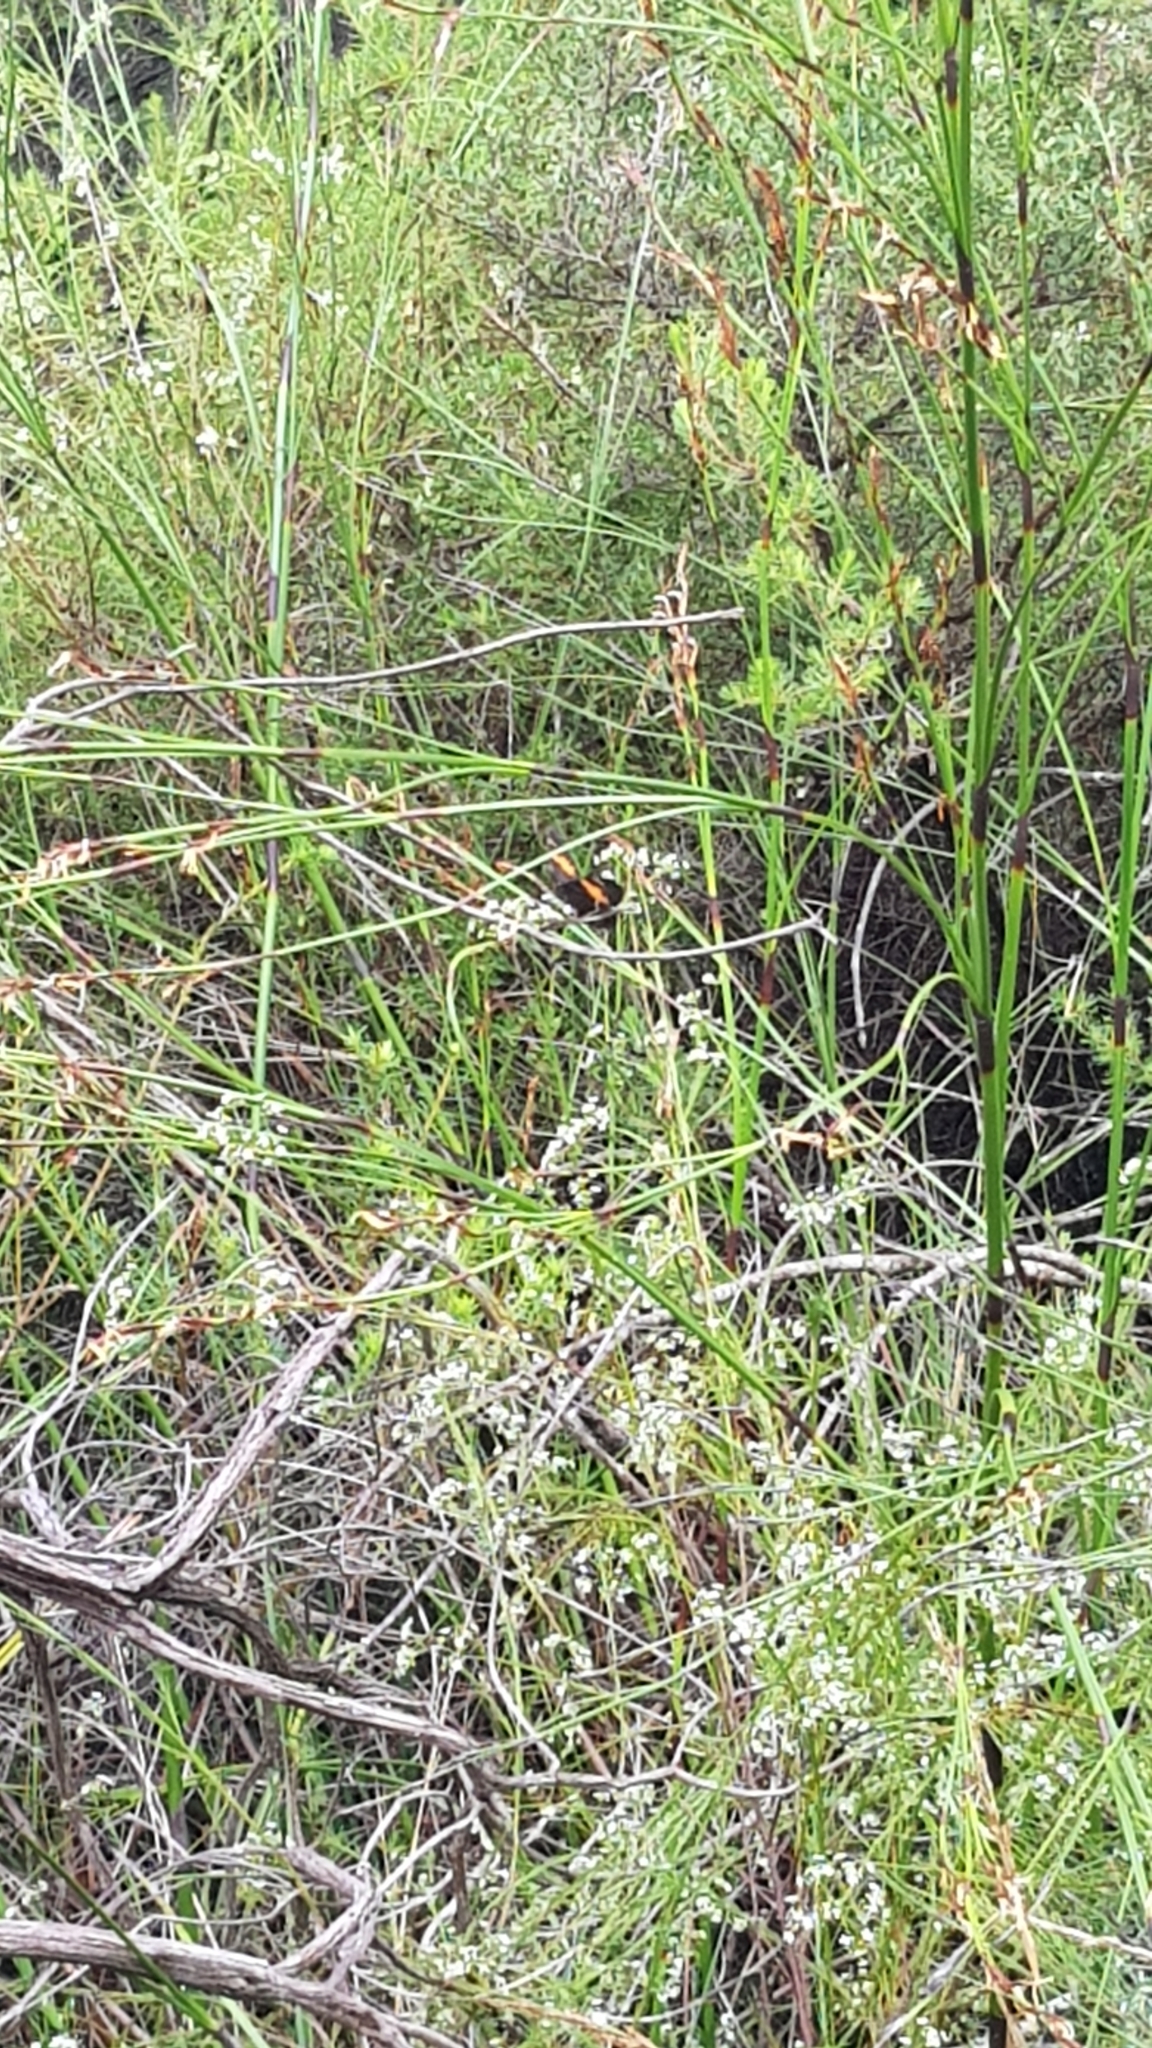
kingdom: Animalia
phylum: Arthropoda
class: Insecta
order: Lepidoptera
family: Nymphalidae
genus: Tisiphone
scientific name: Tisiphone abeona
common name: Swordgrass brown
